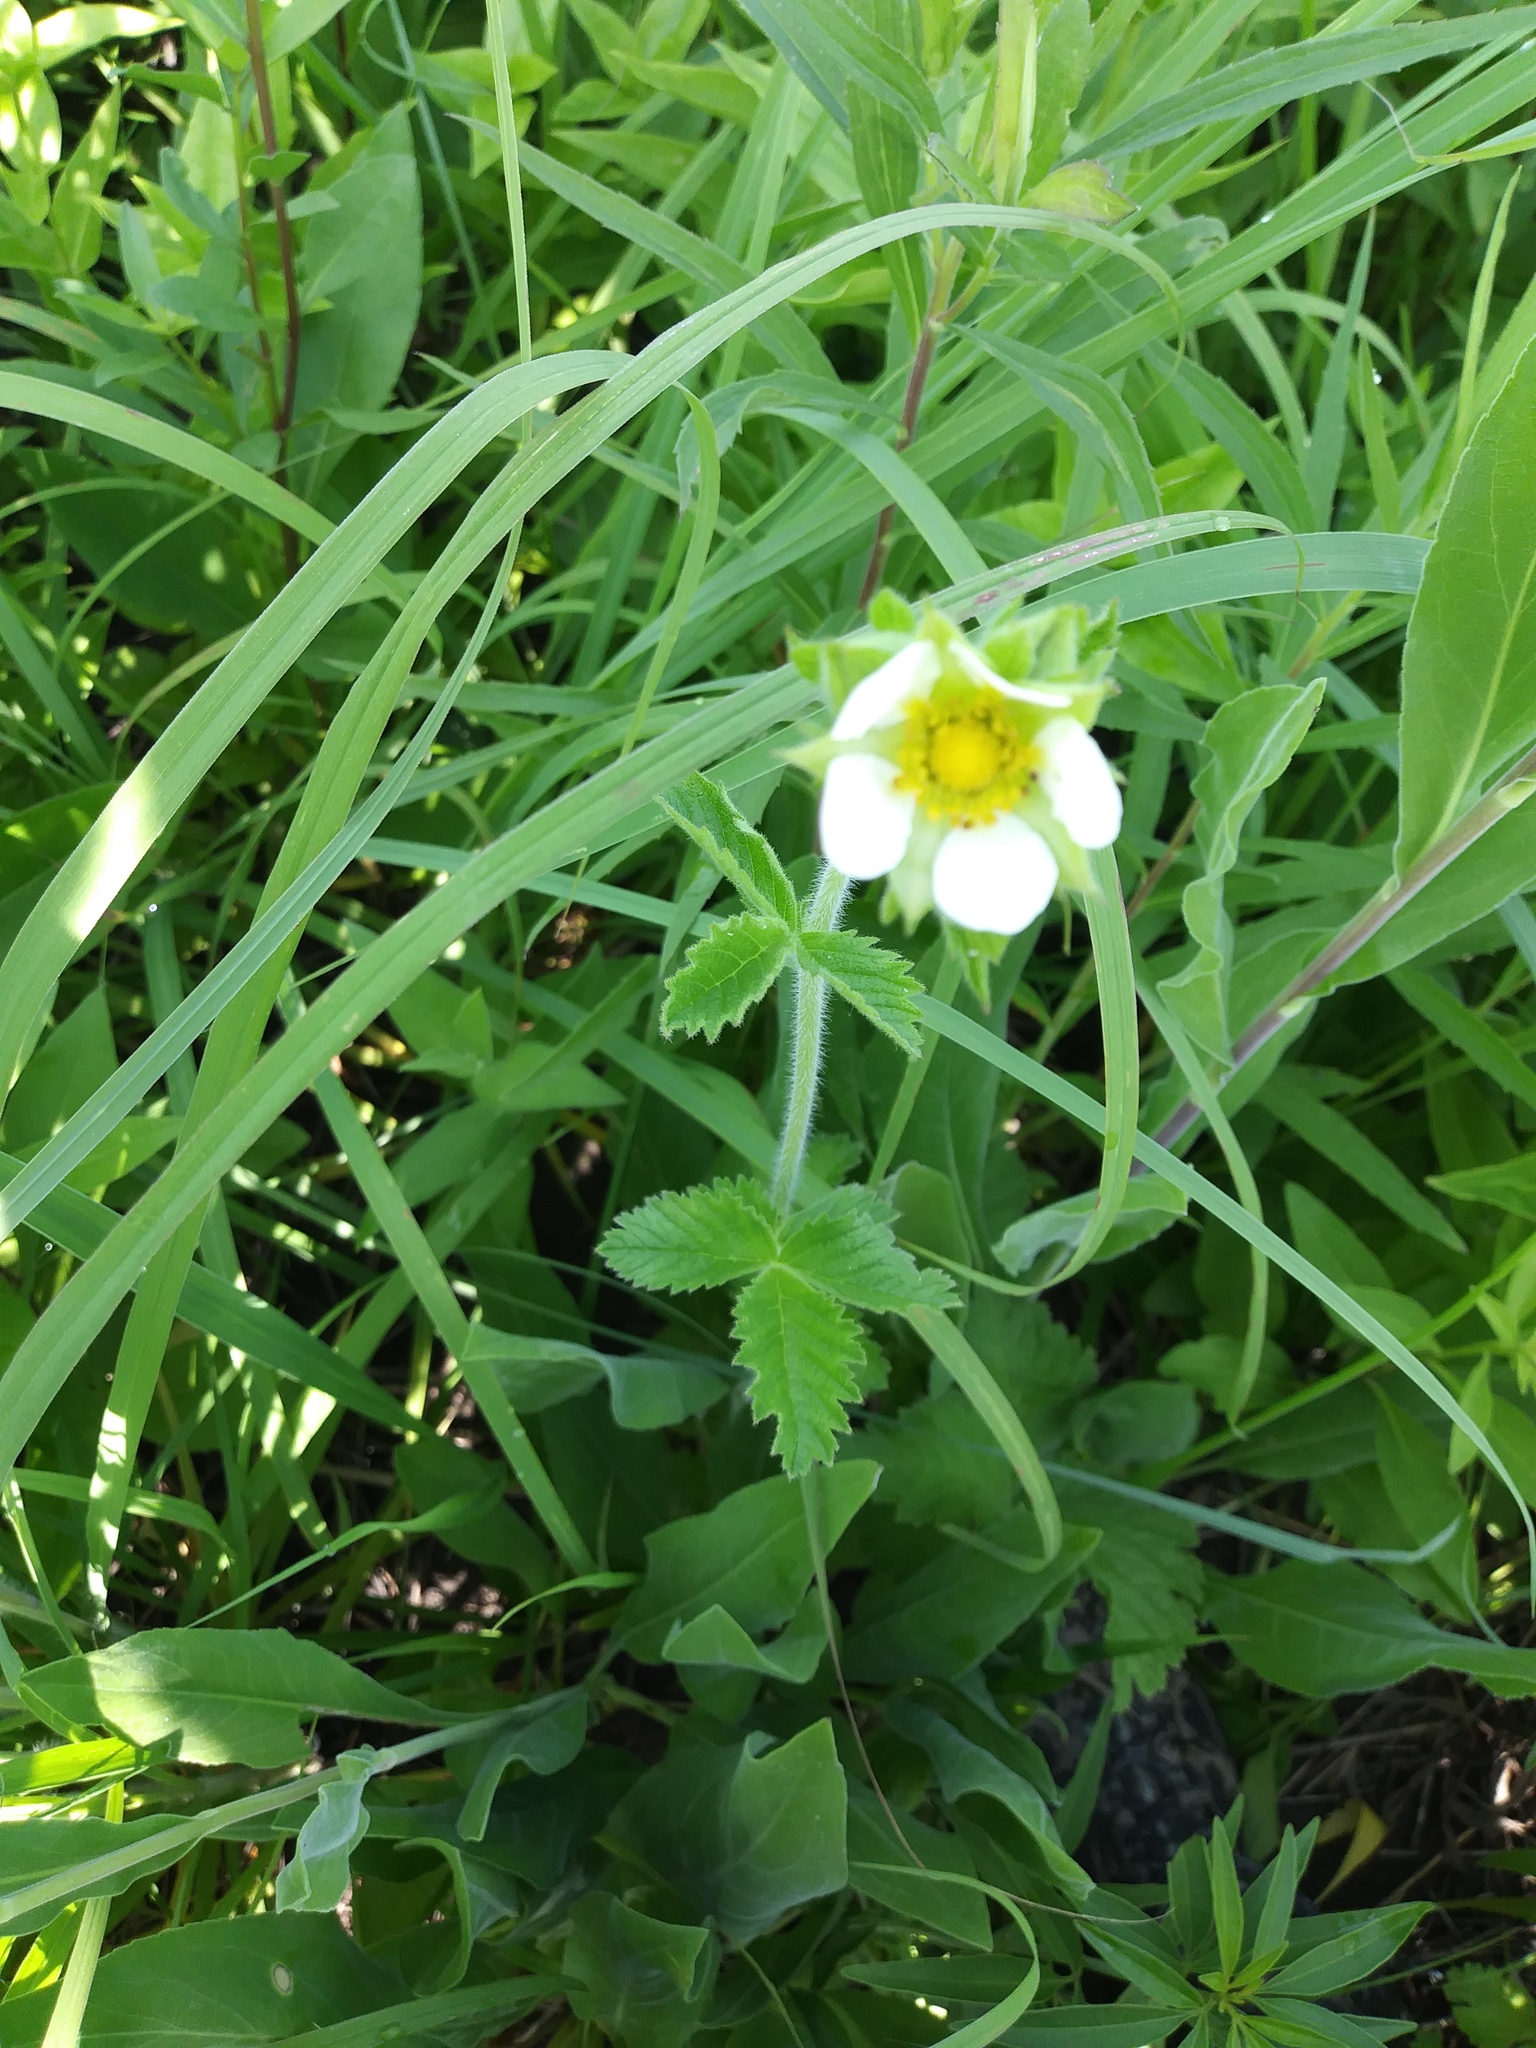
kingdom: Plantae
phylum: Tracheophyta
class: Magnoliopsida
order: Rosales
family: Rosaceae
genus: Drymocallis
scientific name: Drymocallis arguta
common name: Tall cinquefoil
